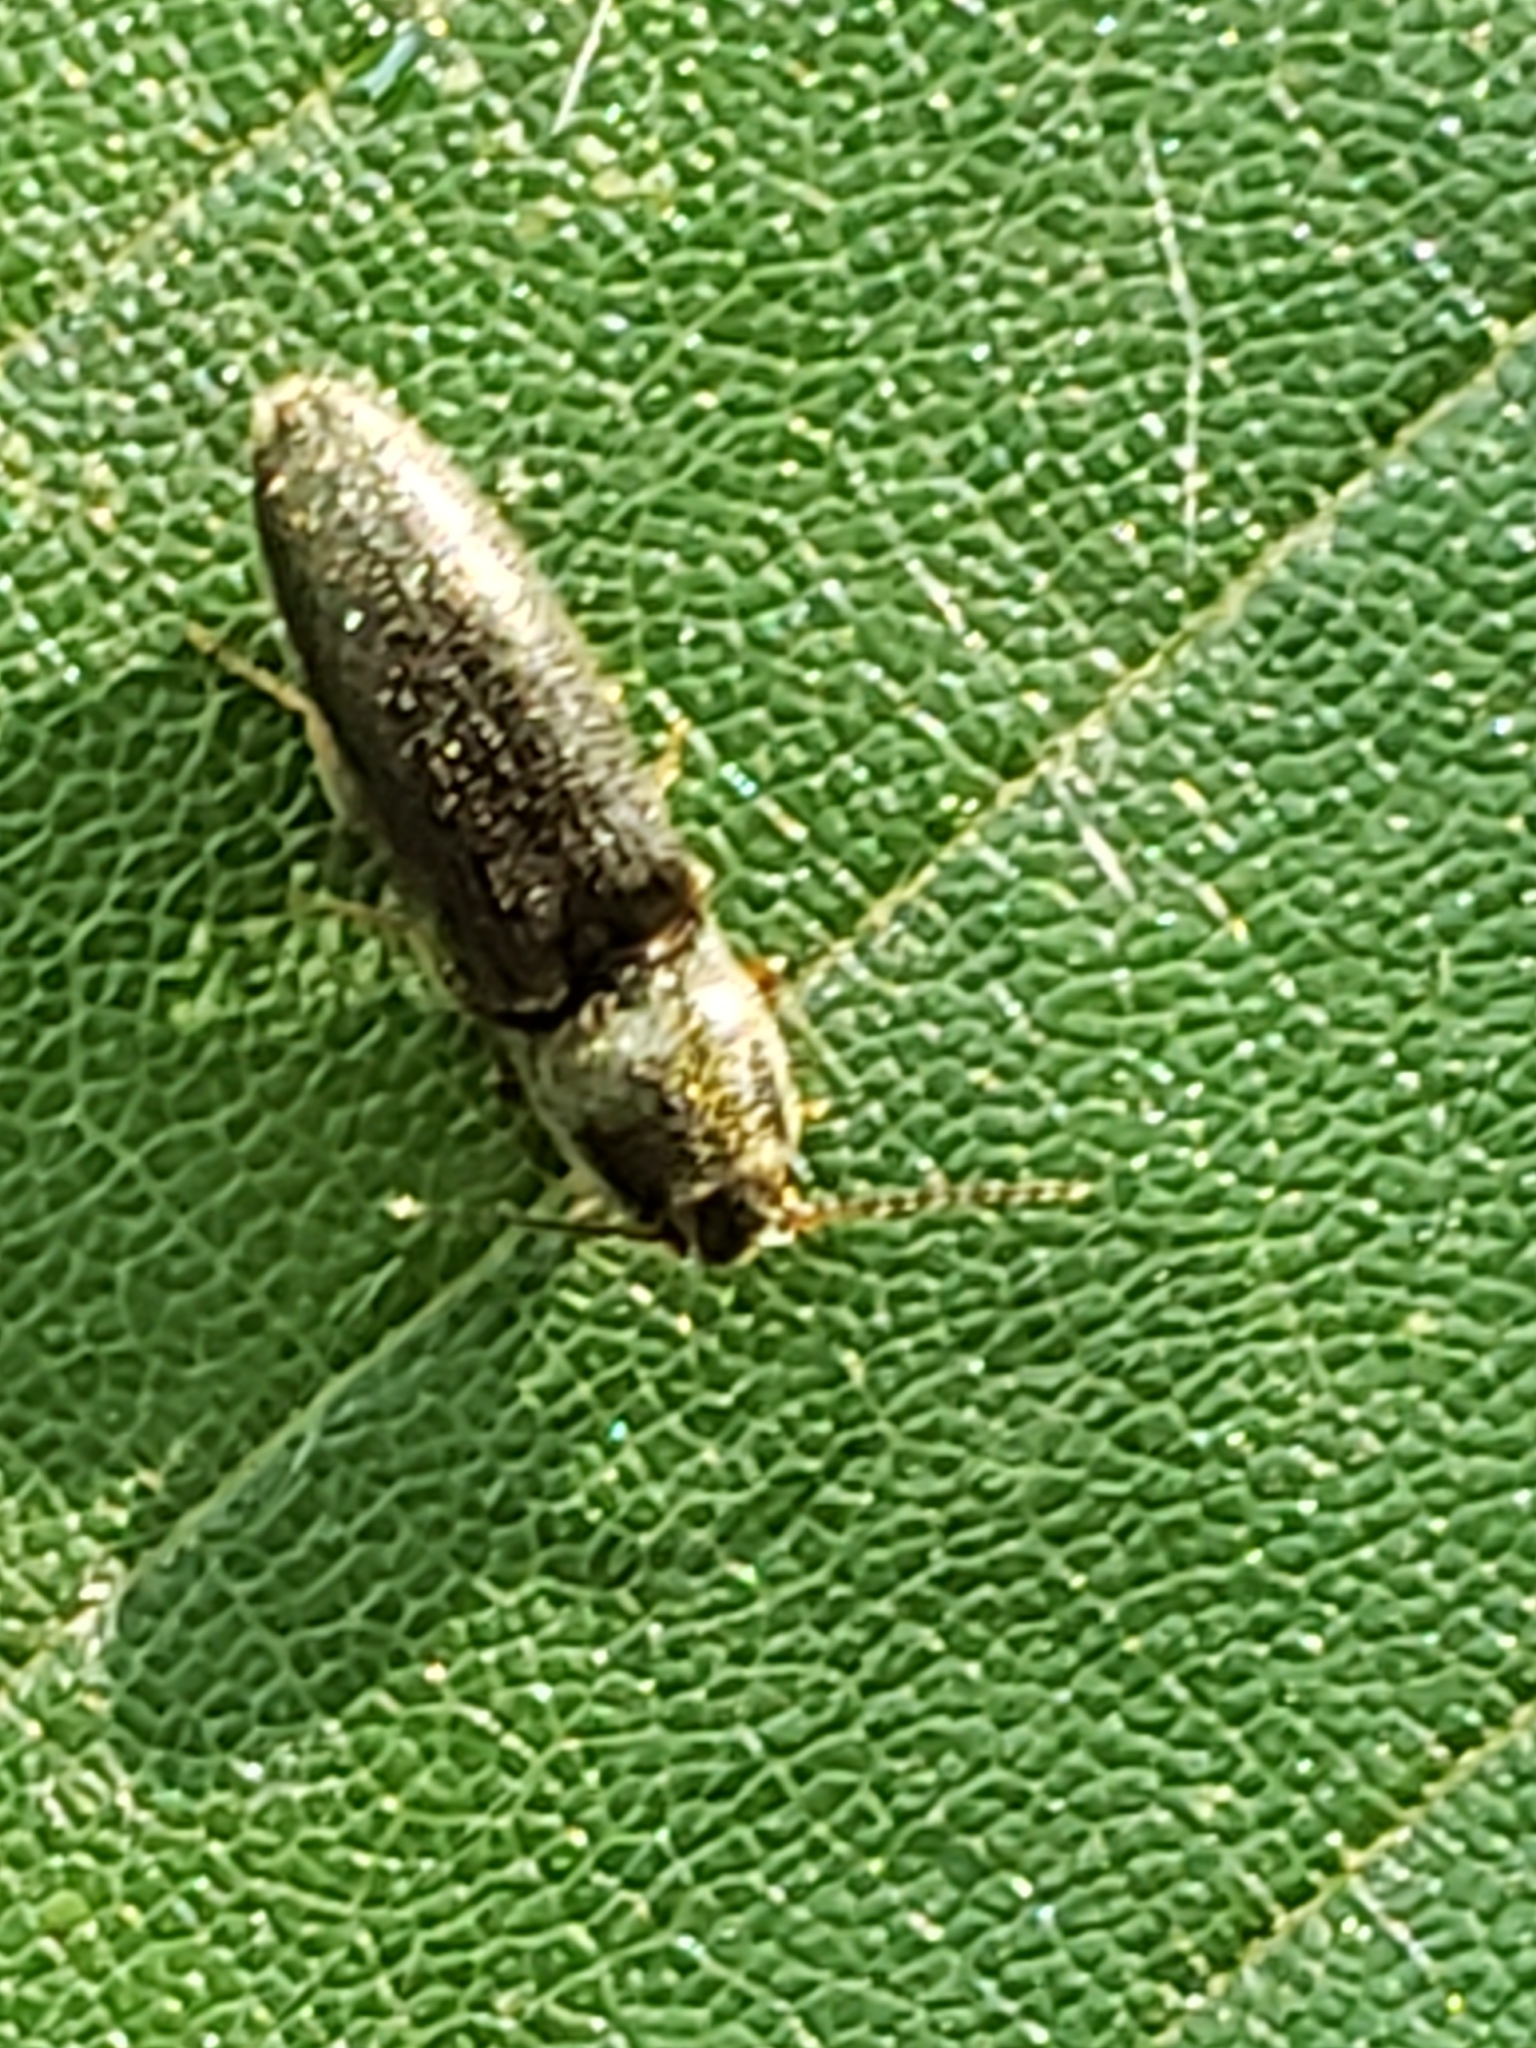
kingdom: Animalia
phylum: Arthropoda
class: Insecta
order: Coleoptera
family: Elateridae
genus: Limonius
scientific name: Limonius quercinus
